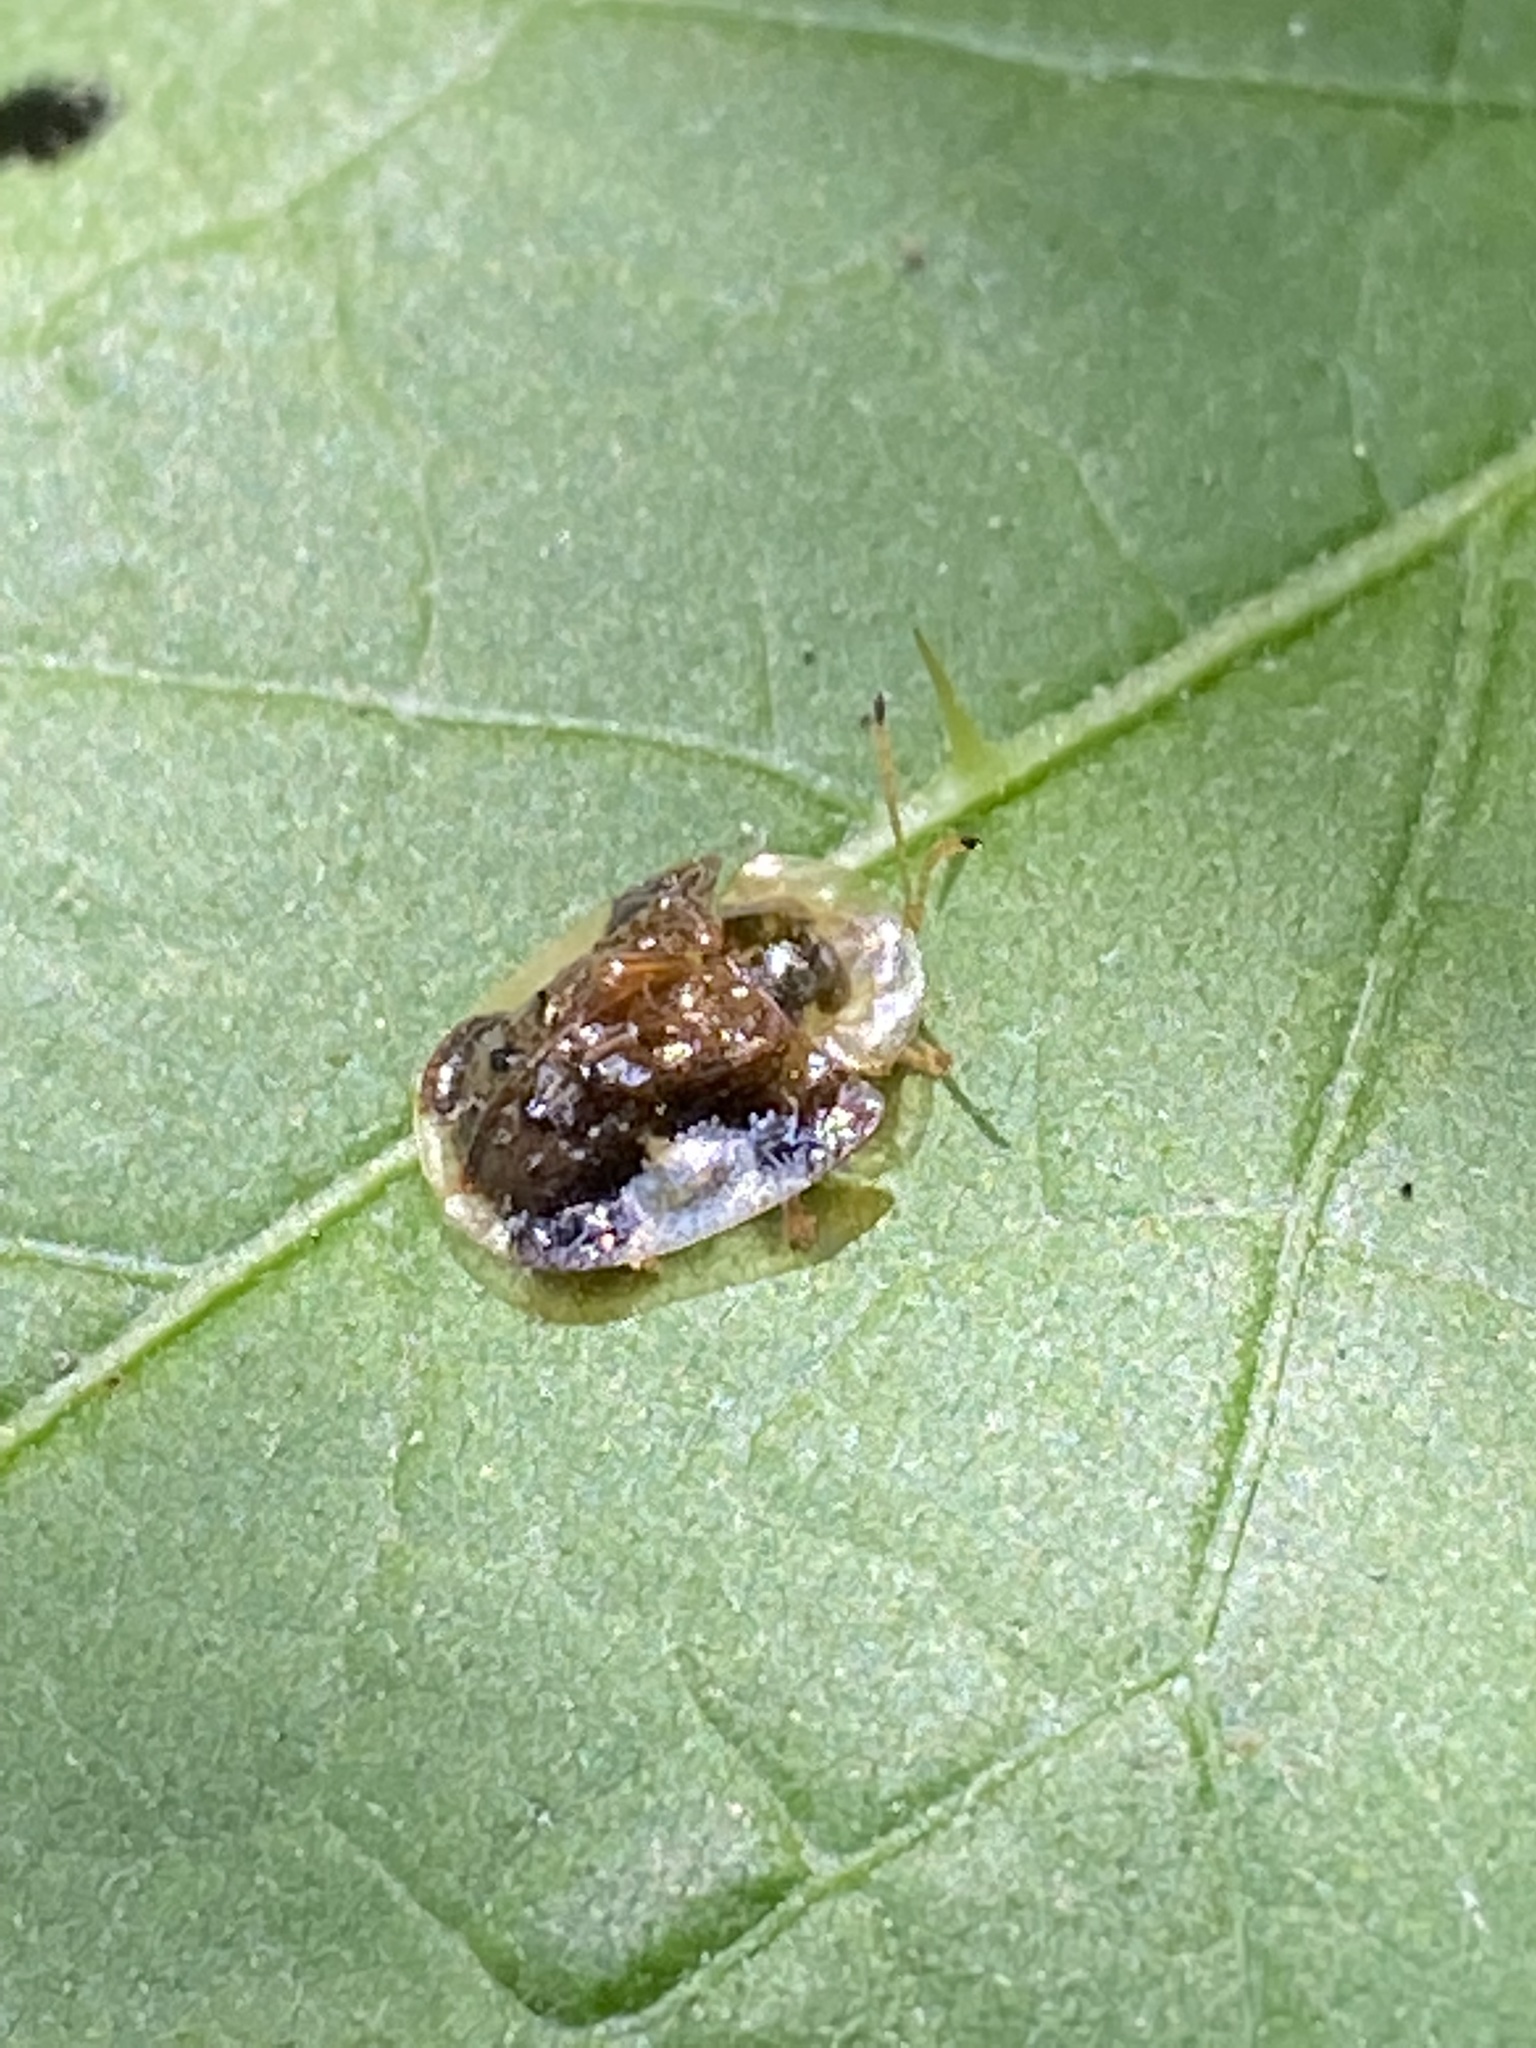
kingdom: Animalia
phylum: Arthropoda
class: Insecta
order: Coleoptera
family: Chrysomelidae
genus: Helocassis
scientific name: Helocassis clavata
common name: Clavate tortoise beetle
